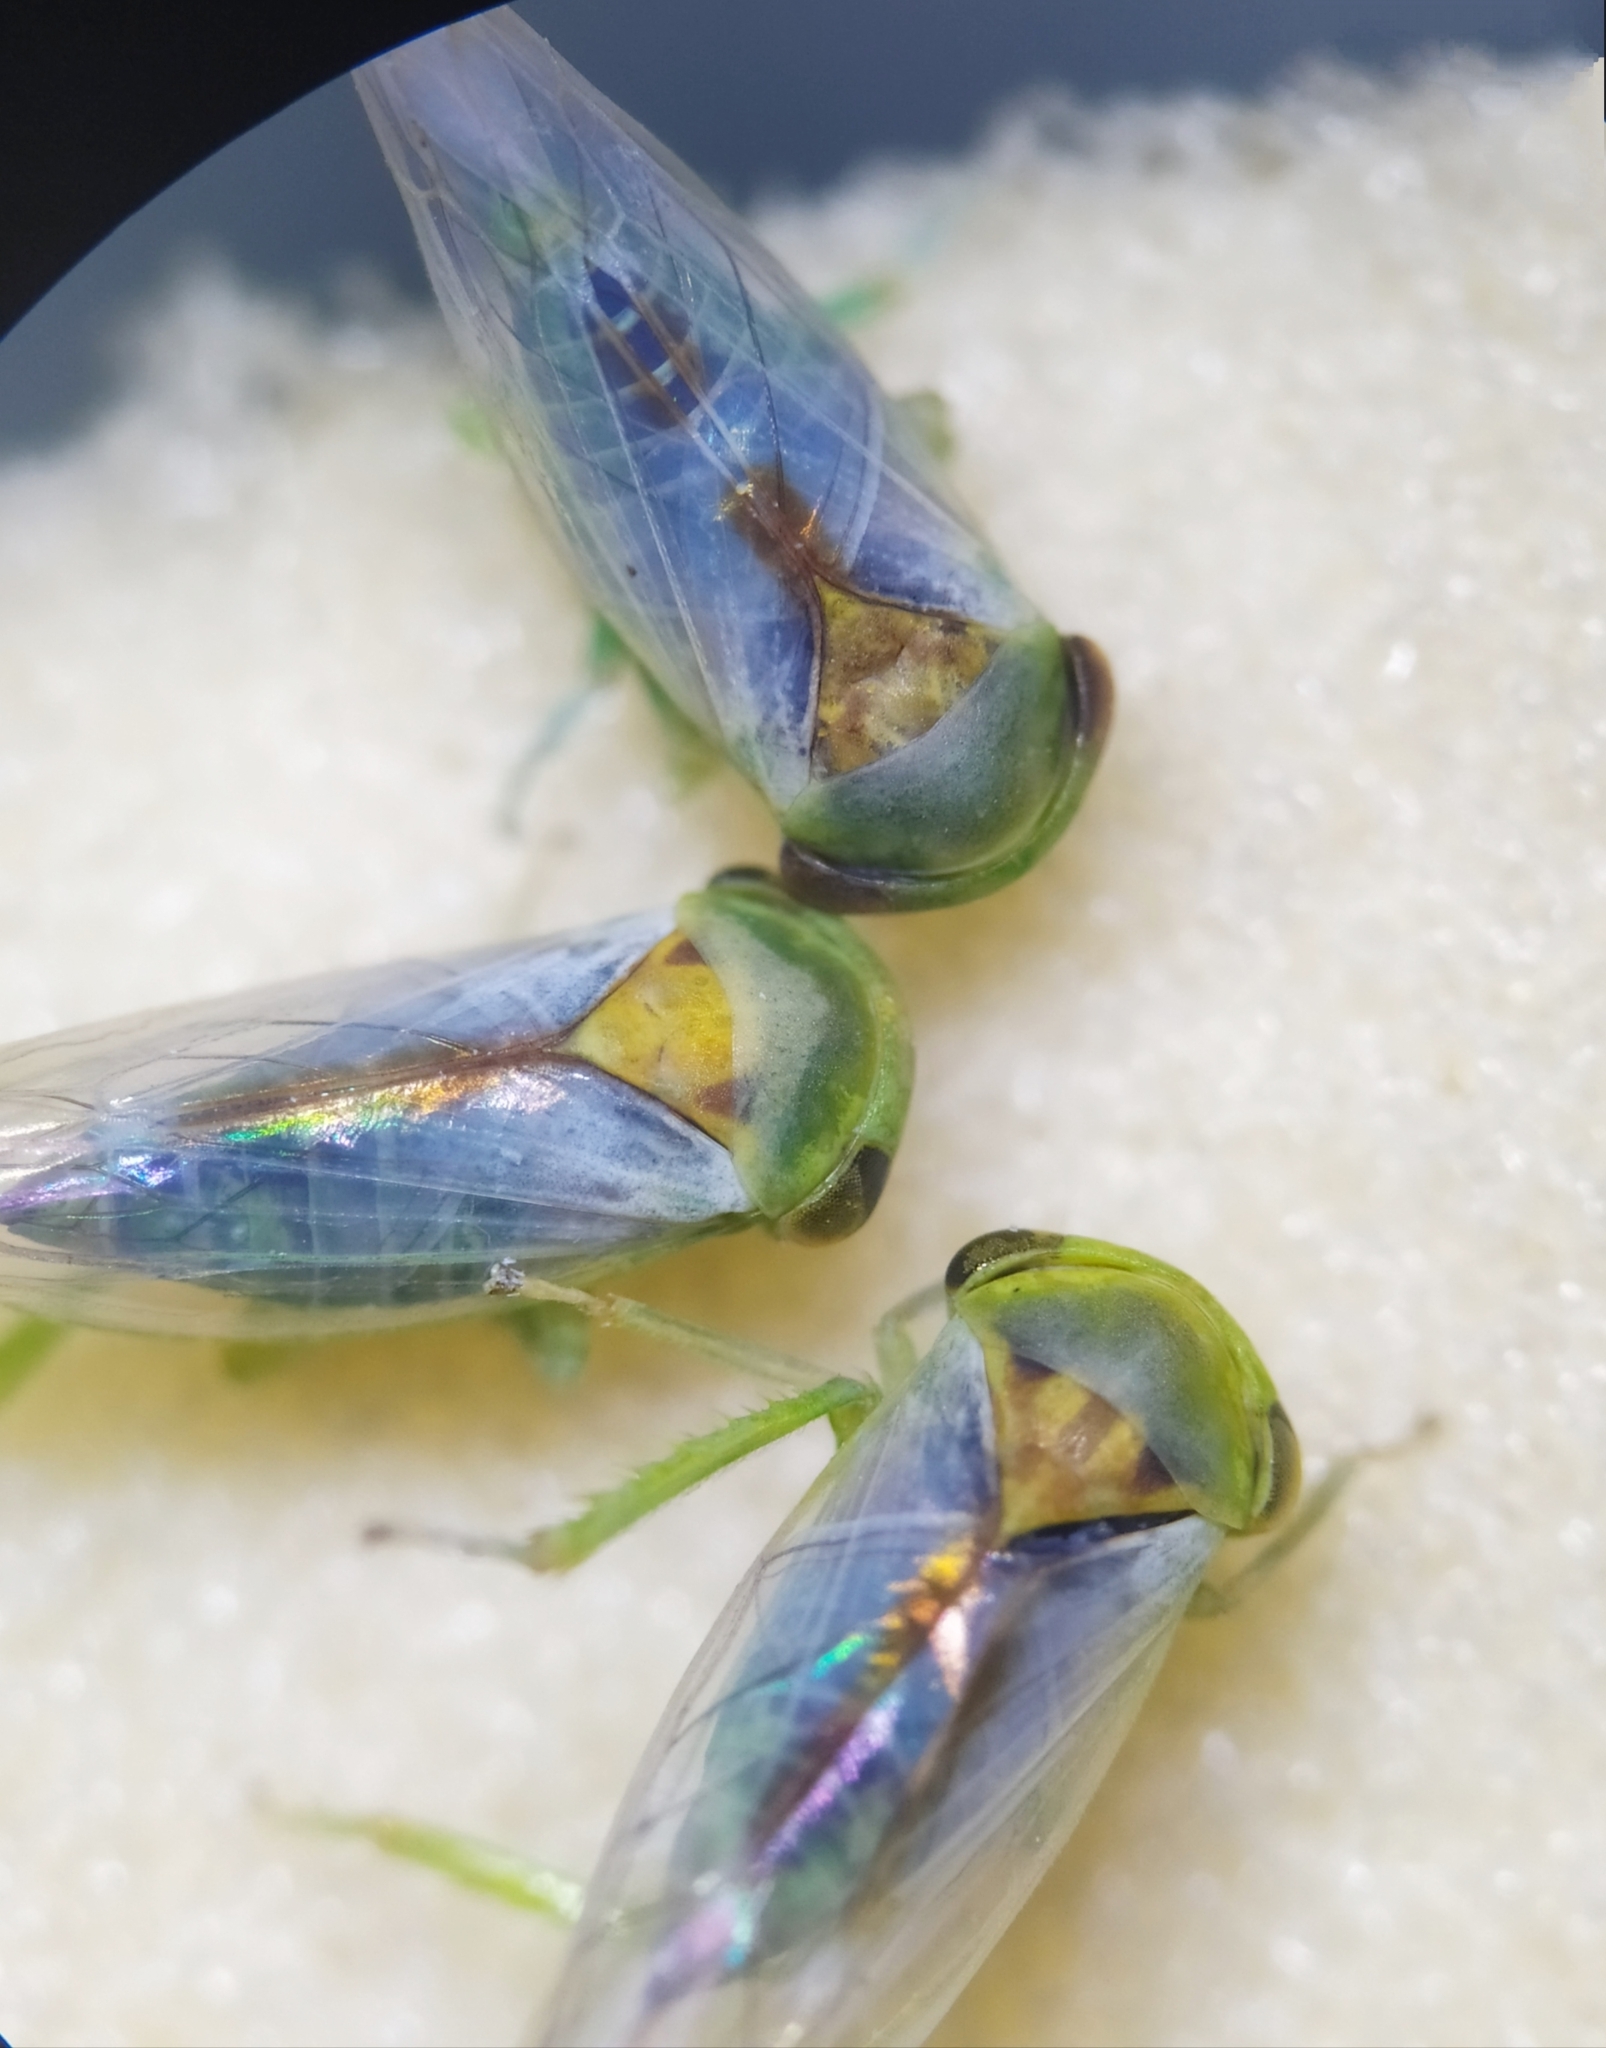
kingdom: Animalia
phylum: Arthropoda
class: Insecta
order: Hemiptera
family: Cicadellidae
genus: Viridicerus
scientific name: Viridicerus ustulatus
